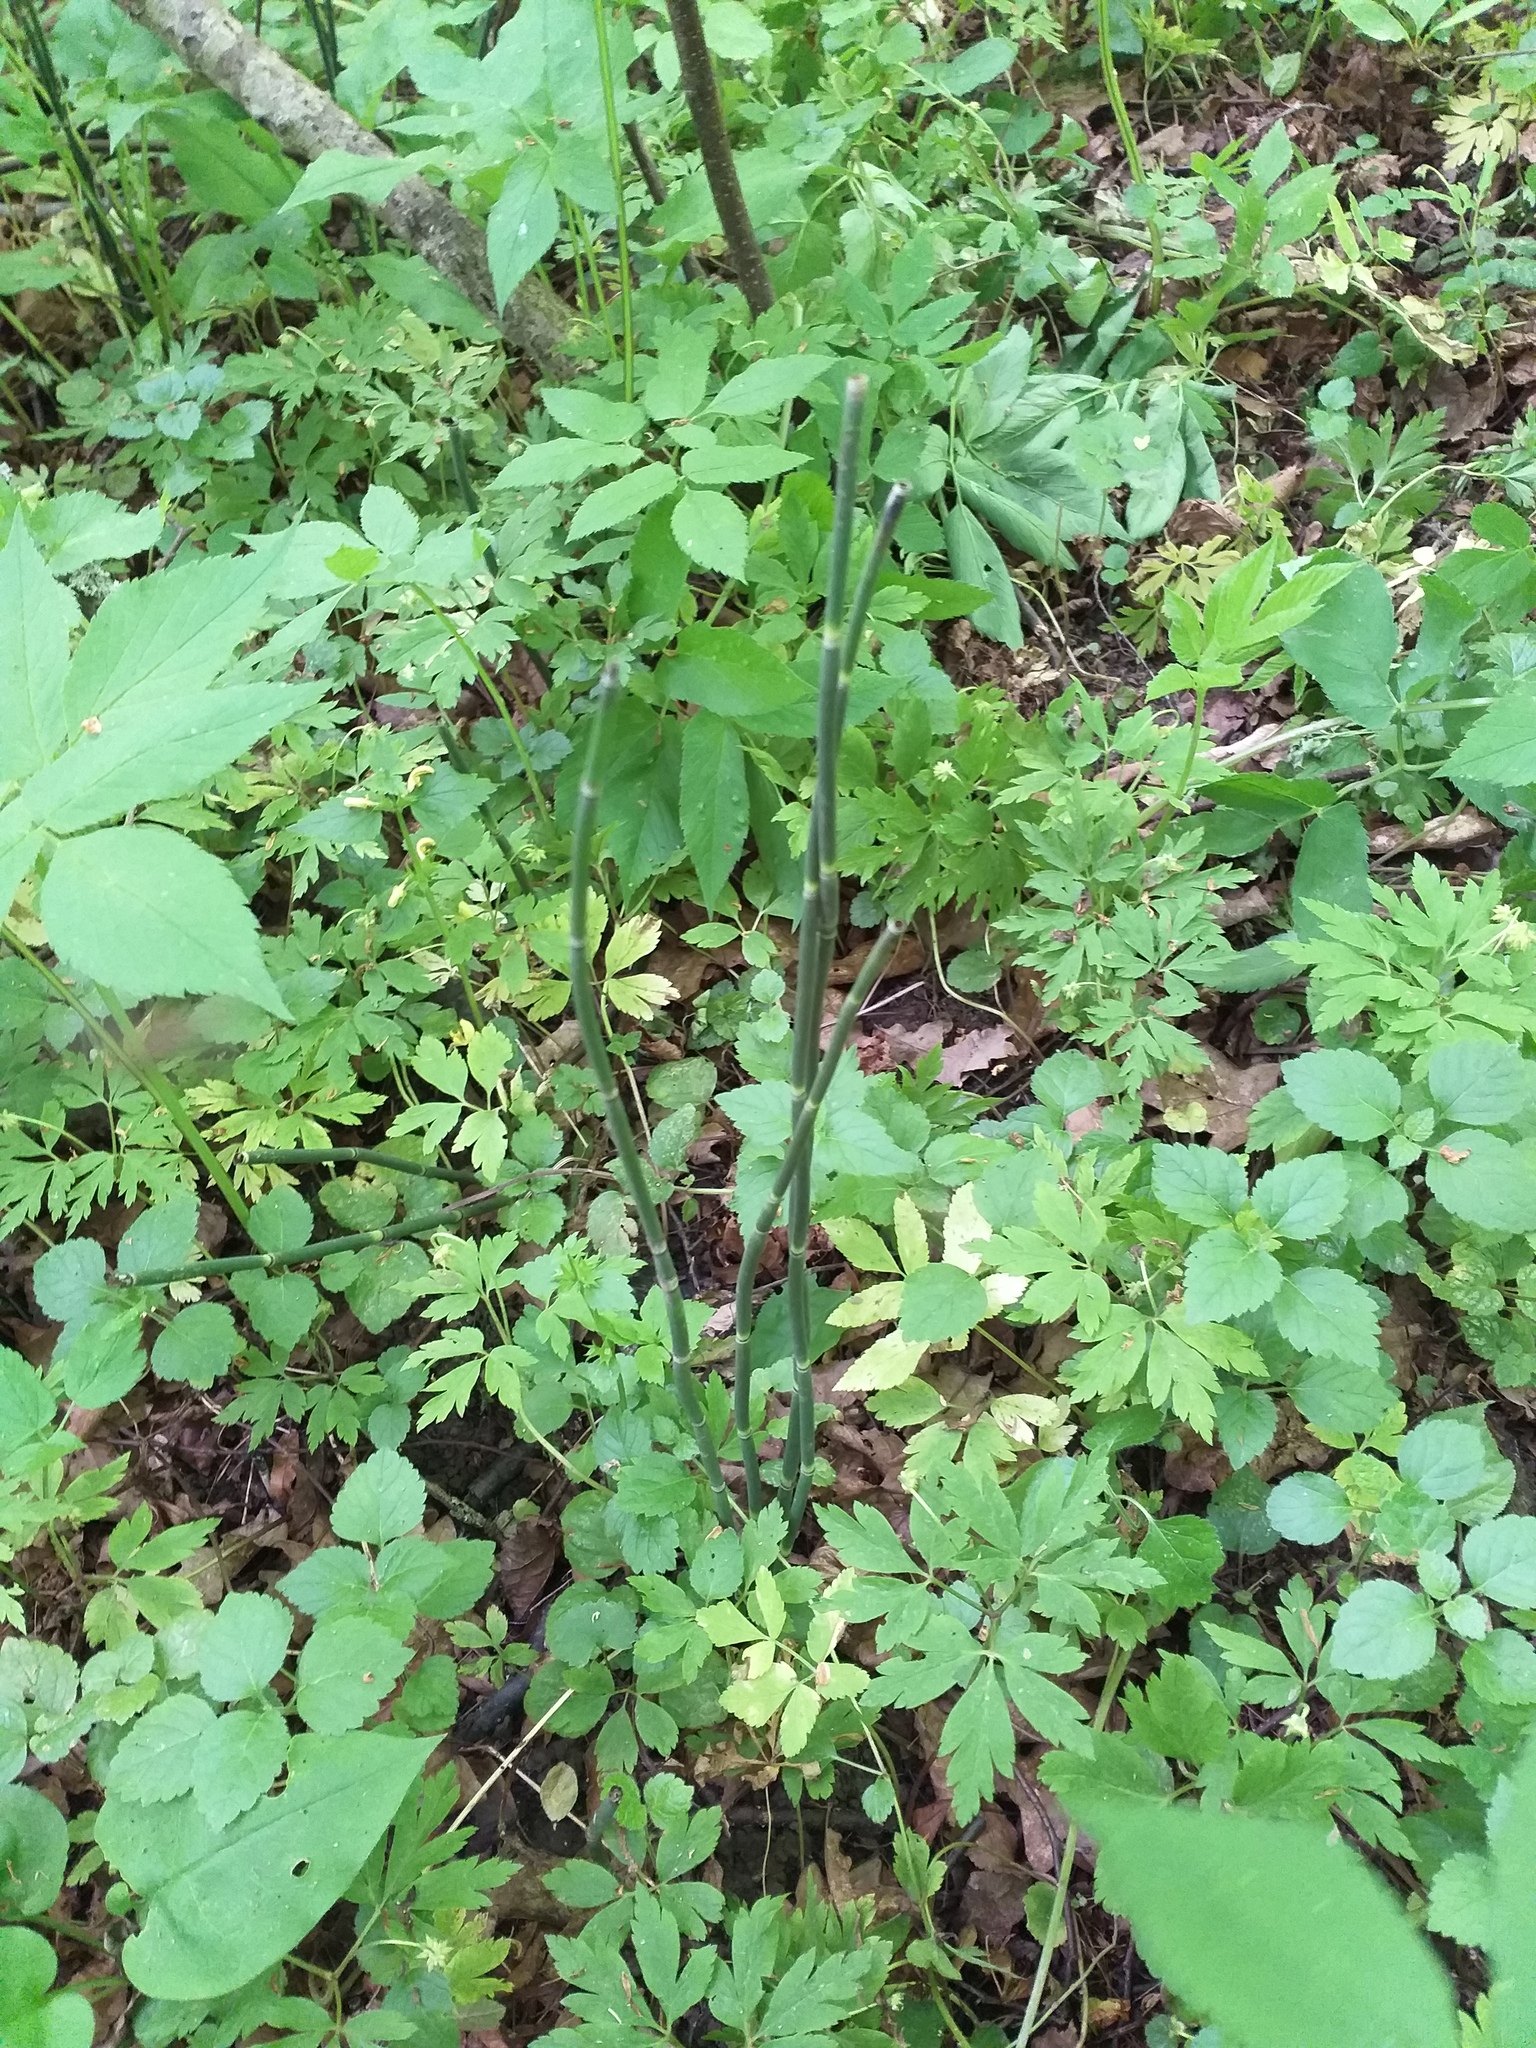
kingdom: Plantae
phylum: Tracheophyta
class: Polypodiopsida
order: Equisetales
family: Equisetaceae
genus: Equisetum
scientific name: Equisetum hyemale
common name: Rough horsetail
